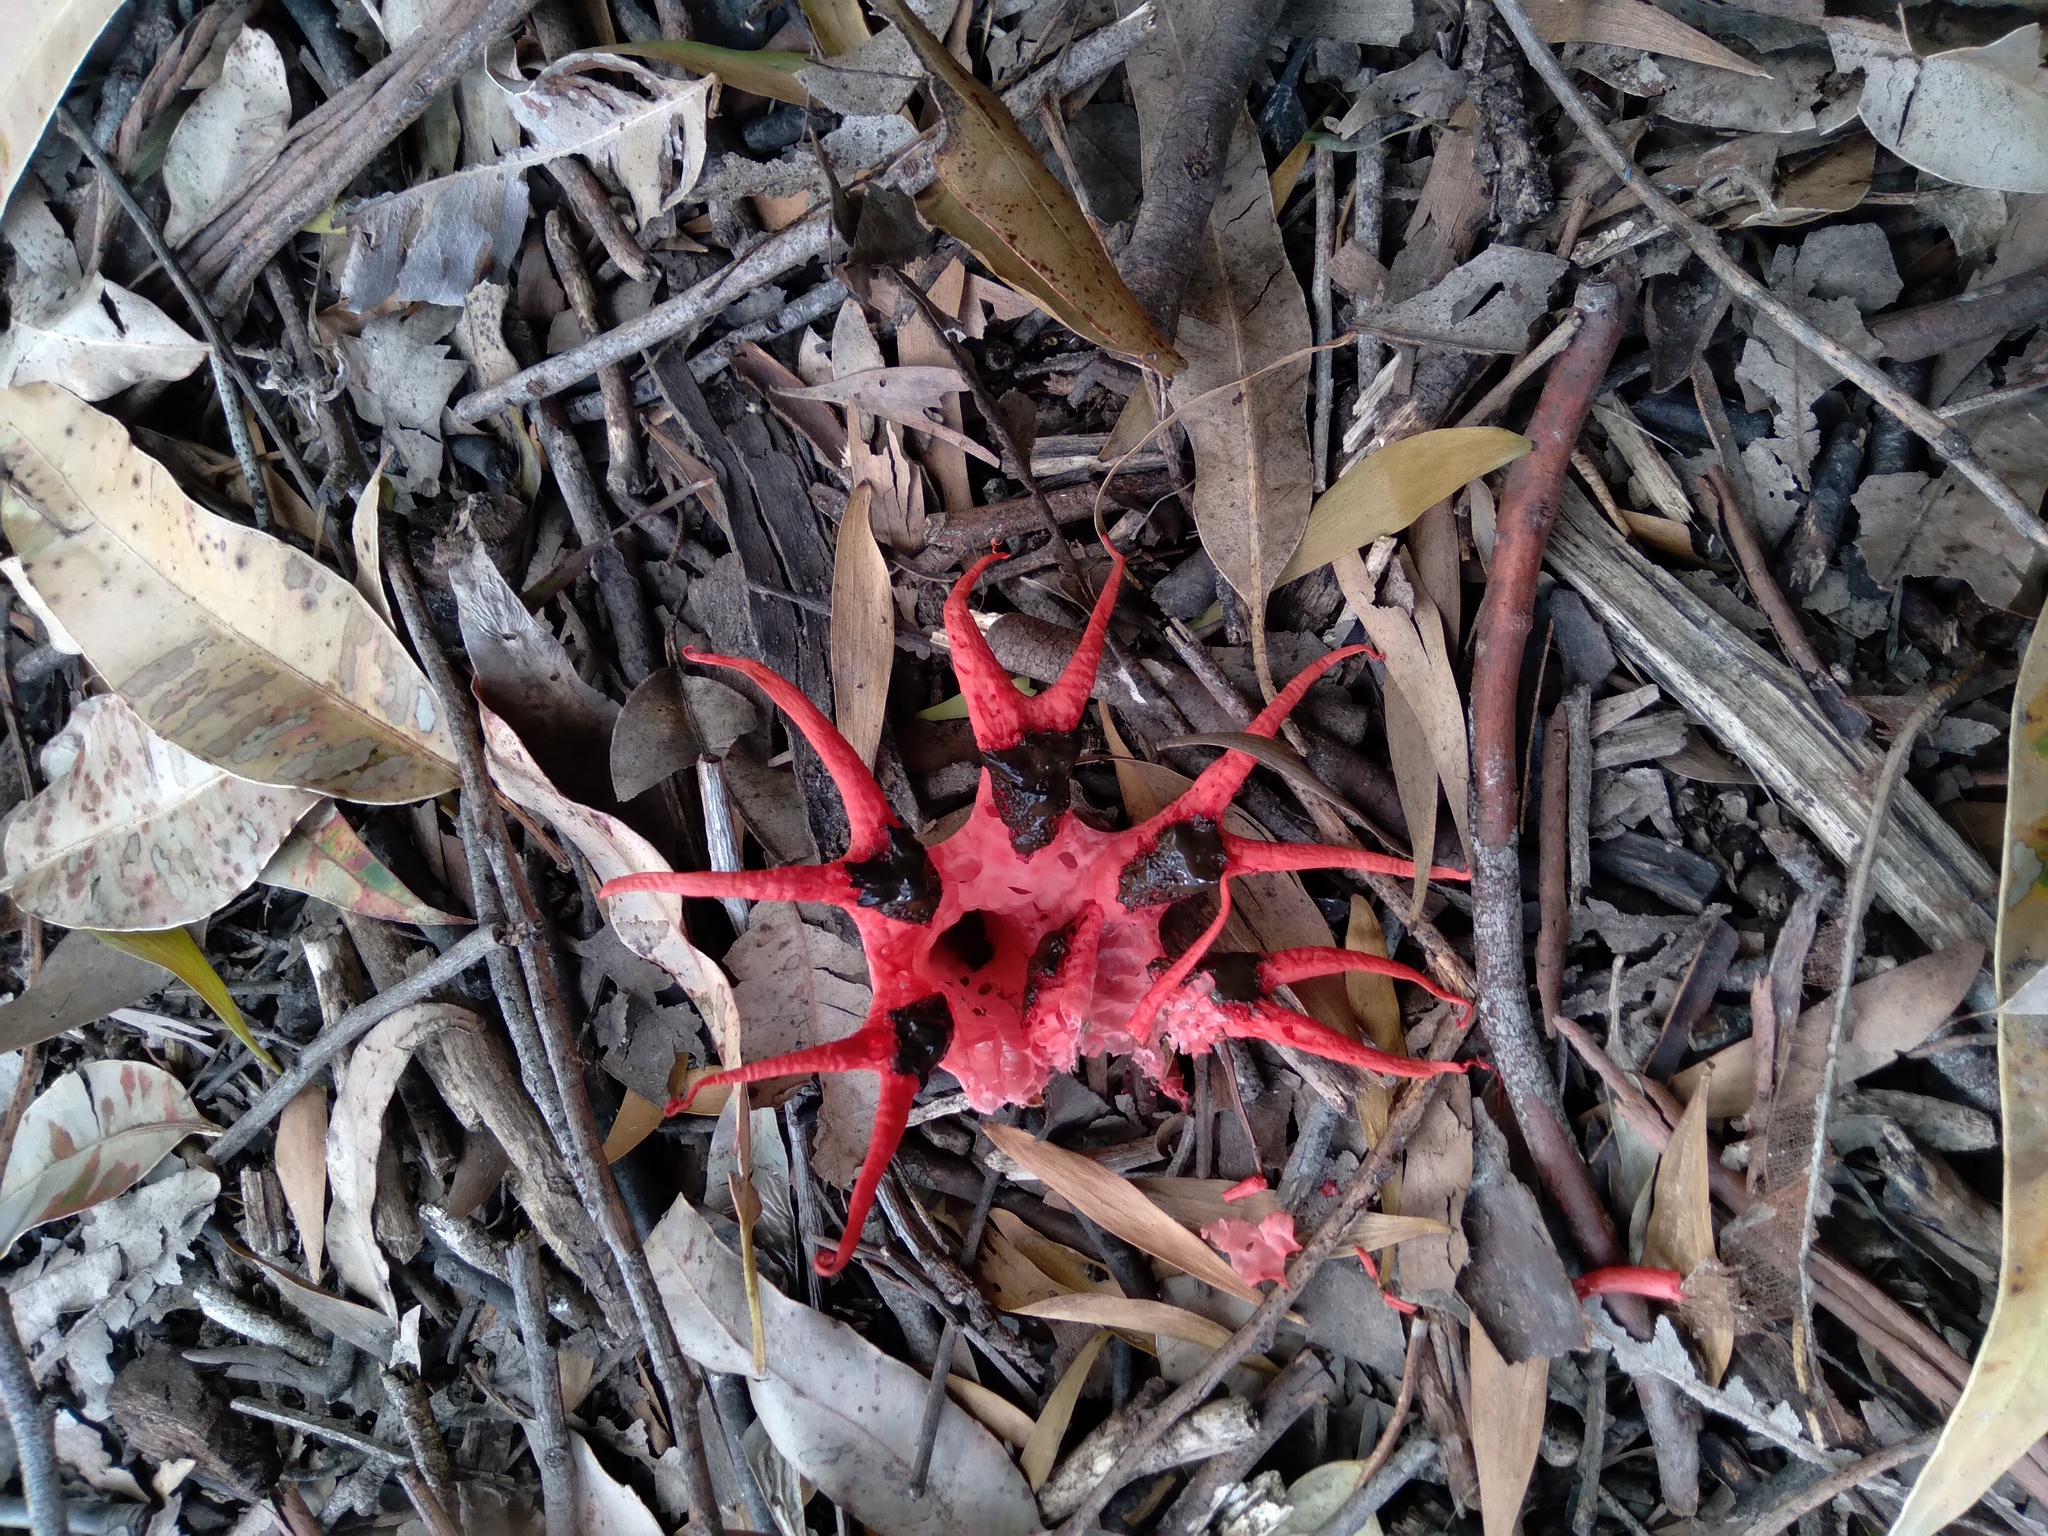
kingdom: Fungi
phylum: Basidiomycota
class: Agaricomycetes
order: Phallales
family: Phallaceae
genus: Aseroe
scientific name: Aseroe rubra
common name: Starfish fungus
